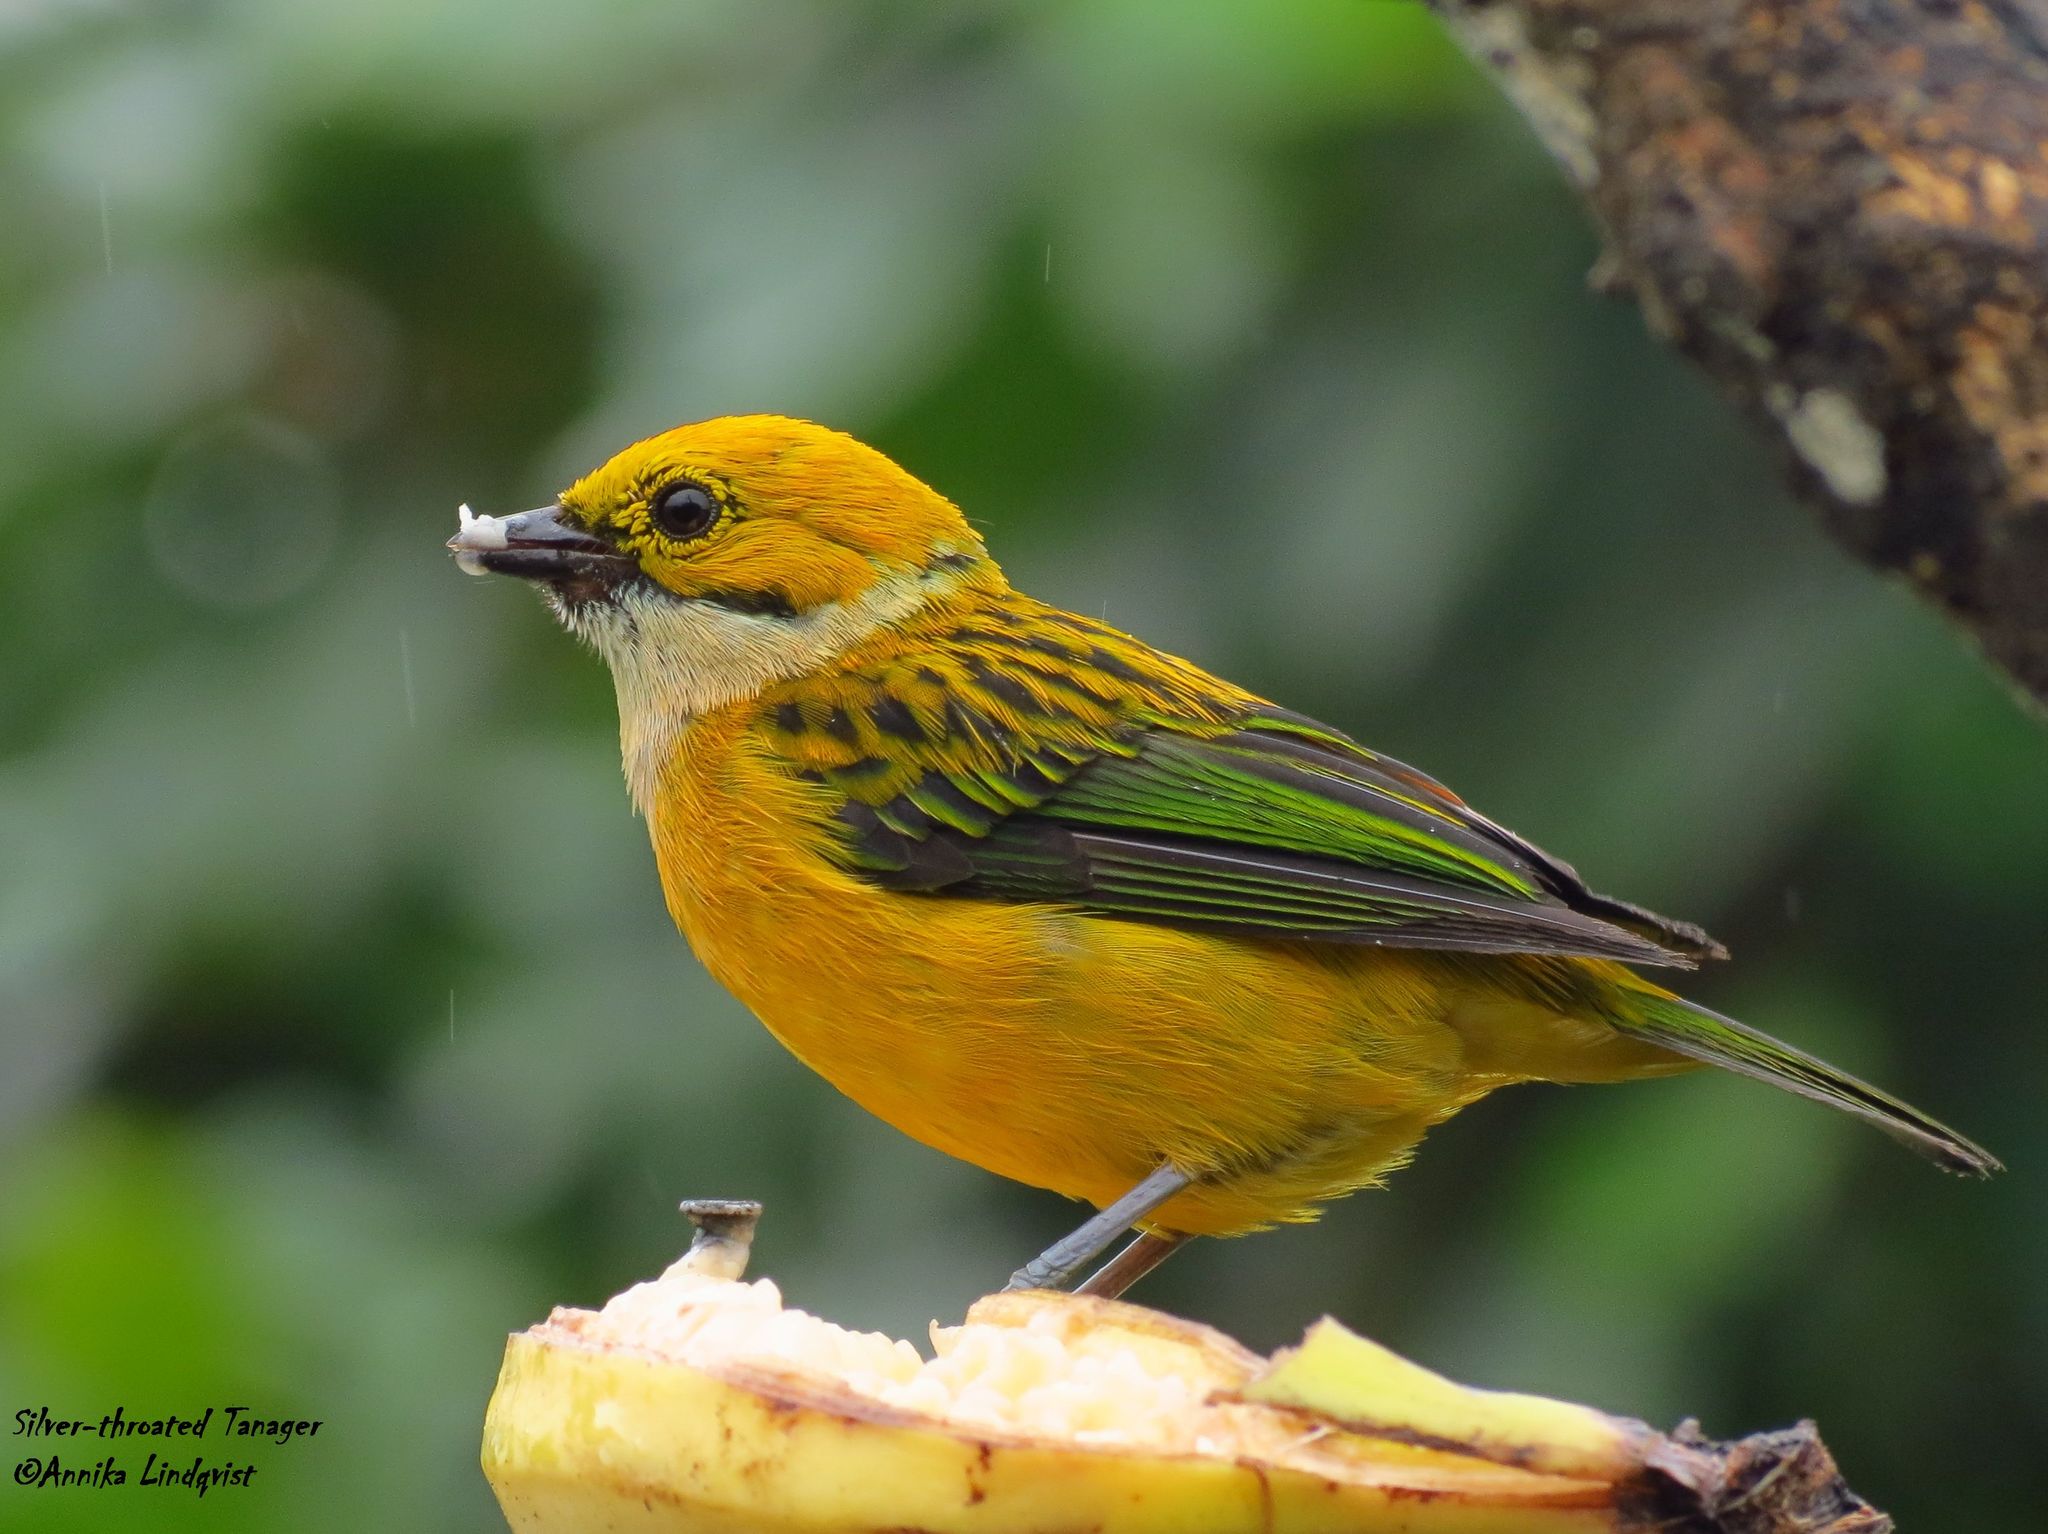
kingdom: Animalia
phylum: Chordata
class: Aves
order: Passeriformes
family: Thraupidae
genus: Tangara
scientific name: Tangara icterocephala
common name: Silver-throated tanager
